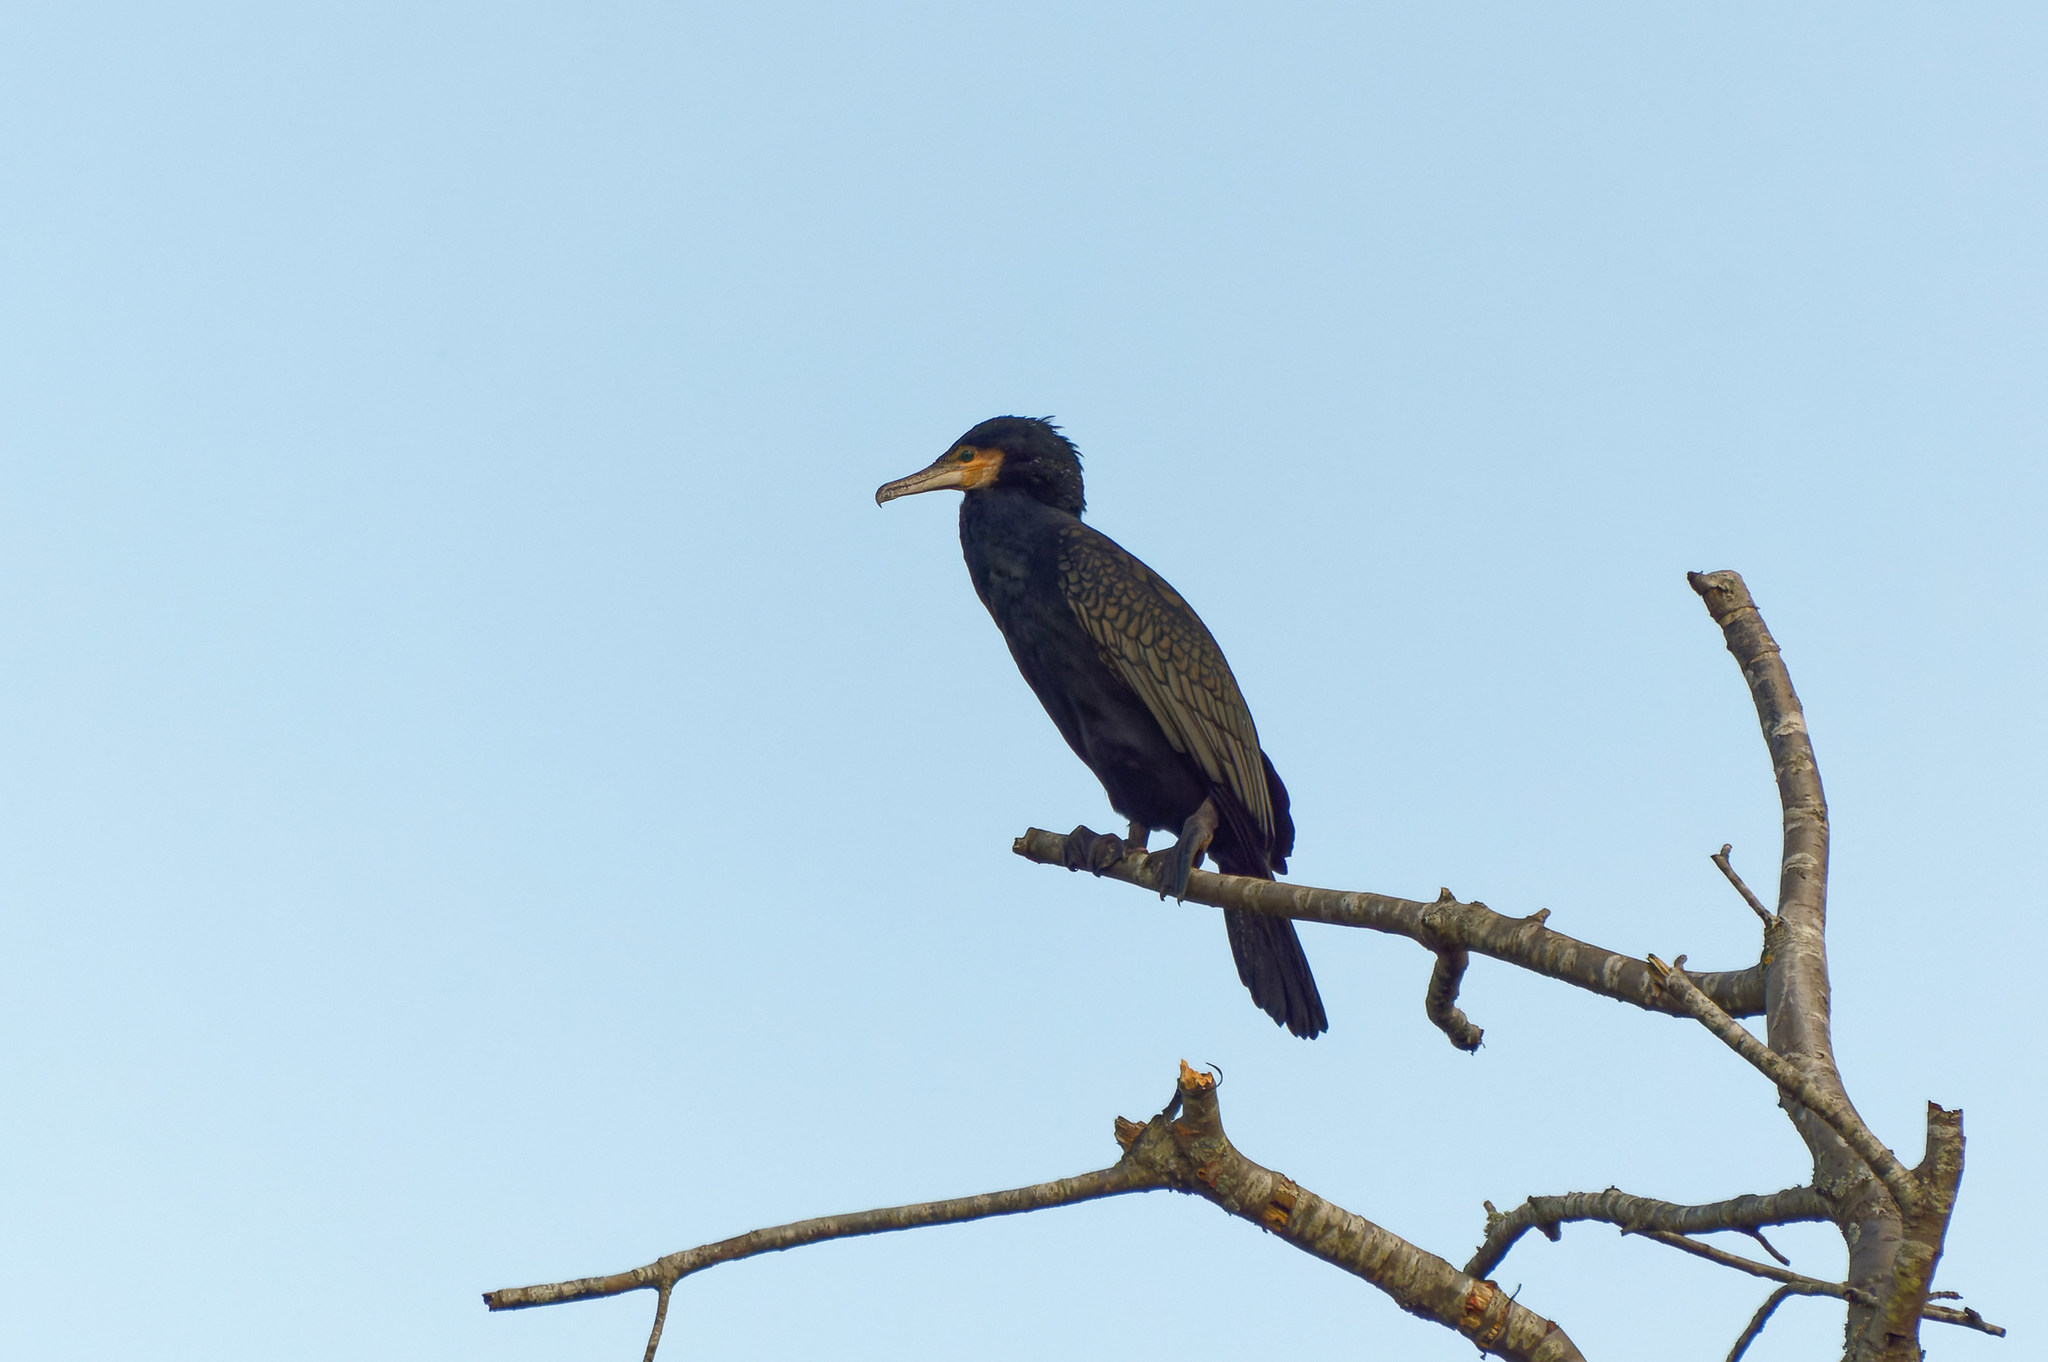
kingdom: Animalia
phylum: Chordata
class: Aves
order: Suliformes
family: Phalacrocoracidae
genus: Phalacrocorax
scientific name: Phalacrocorax carbo
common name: Great cormorant
